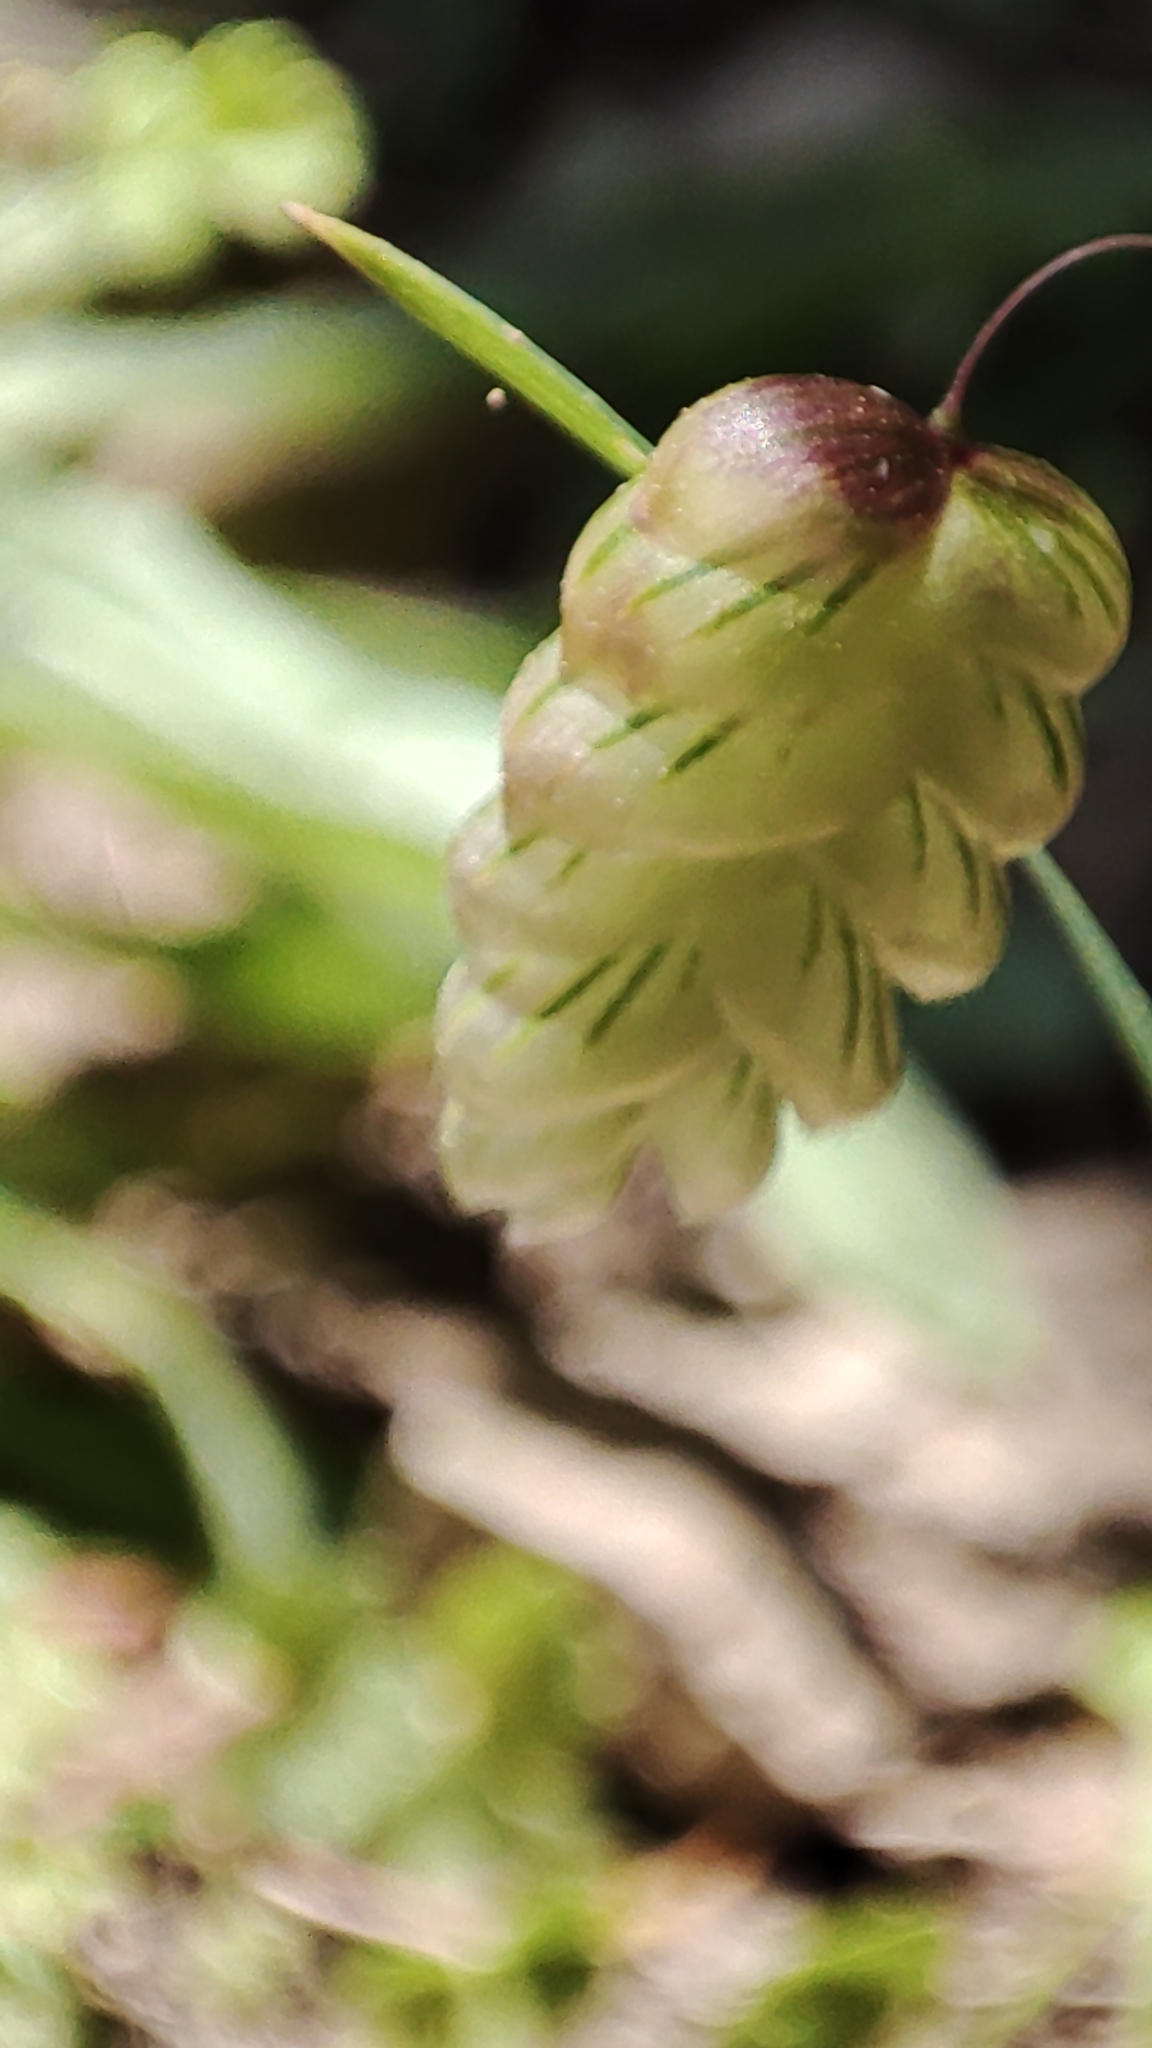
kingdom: Plantae
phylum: Tracheophyta
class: Liliopsida
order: Poales
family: Poaceae
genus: Briza
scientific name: Briza maxima
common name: Big quakinggrass
